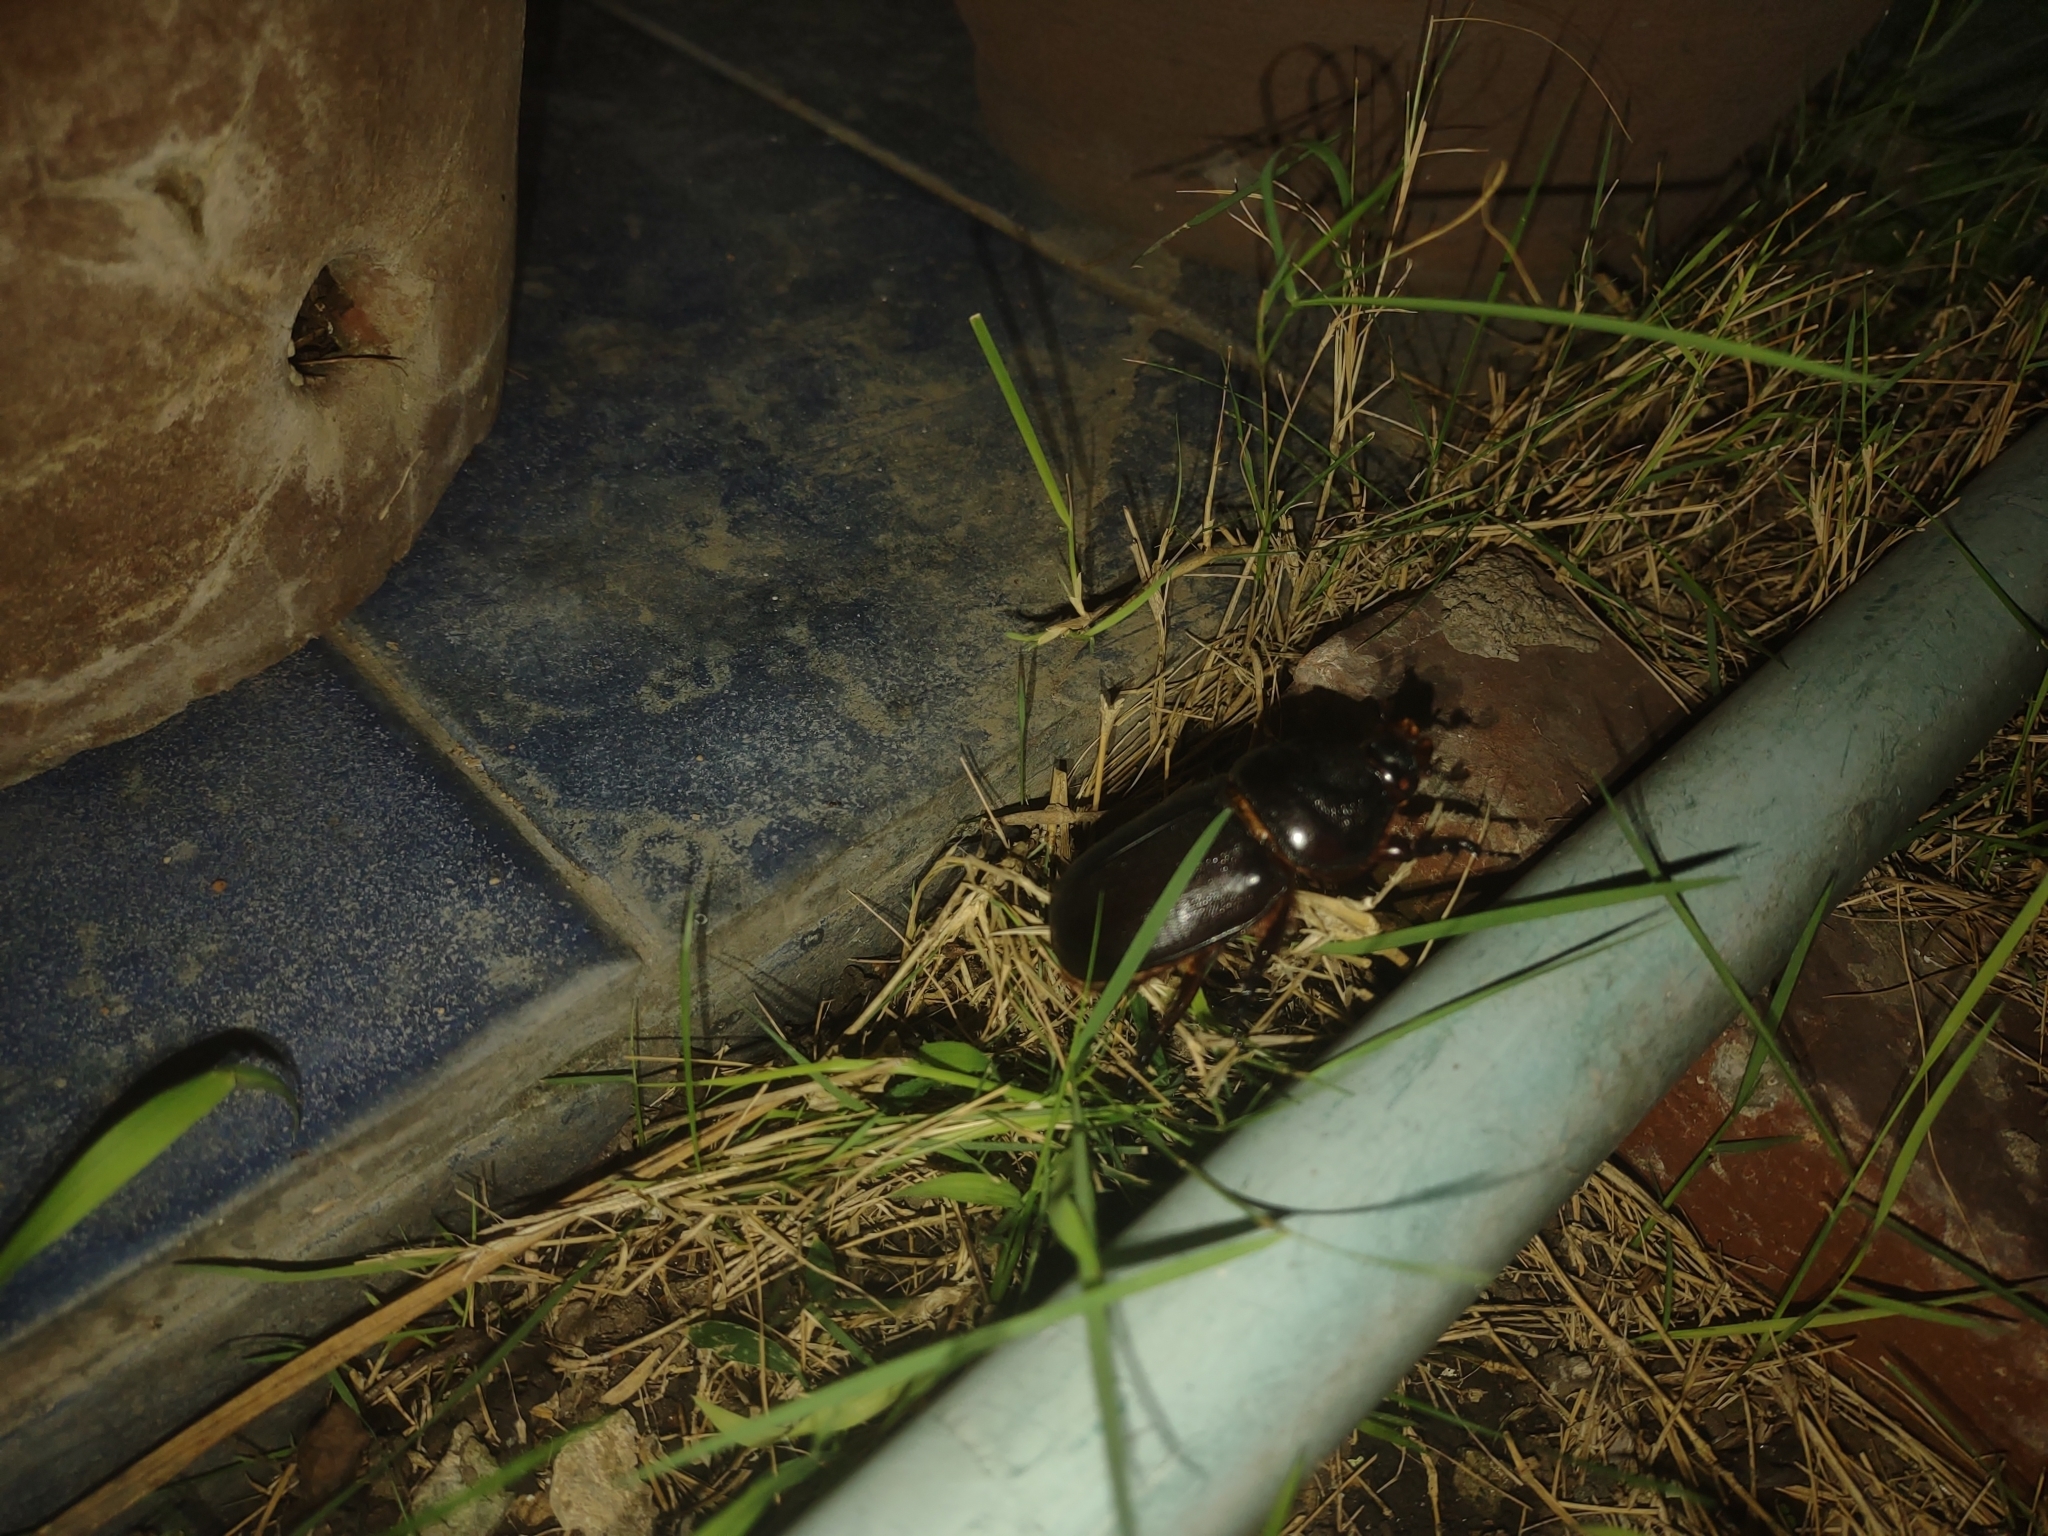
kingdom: Animalia
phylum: Arthropoda
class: Insecta
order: Coleoptera
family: Scarabaeidae
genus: Oryctes
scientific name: Oryctes rhinoceros
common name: Coconut rhinoceros beetle
